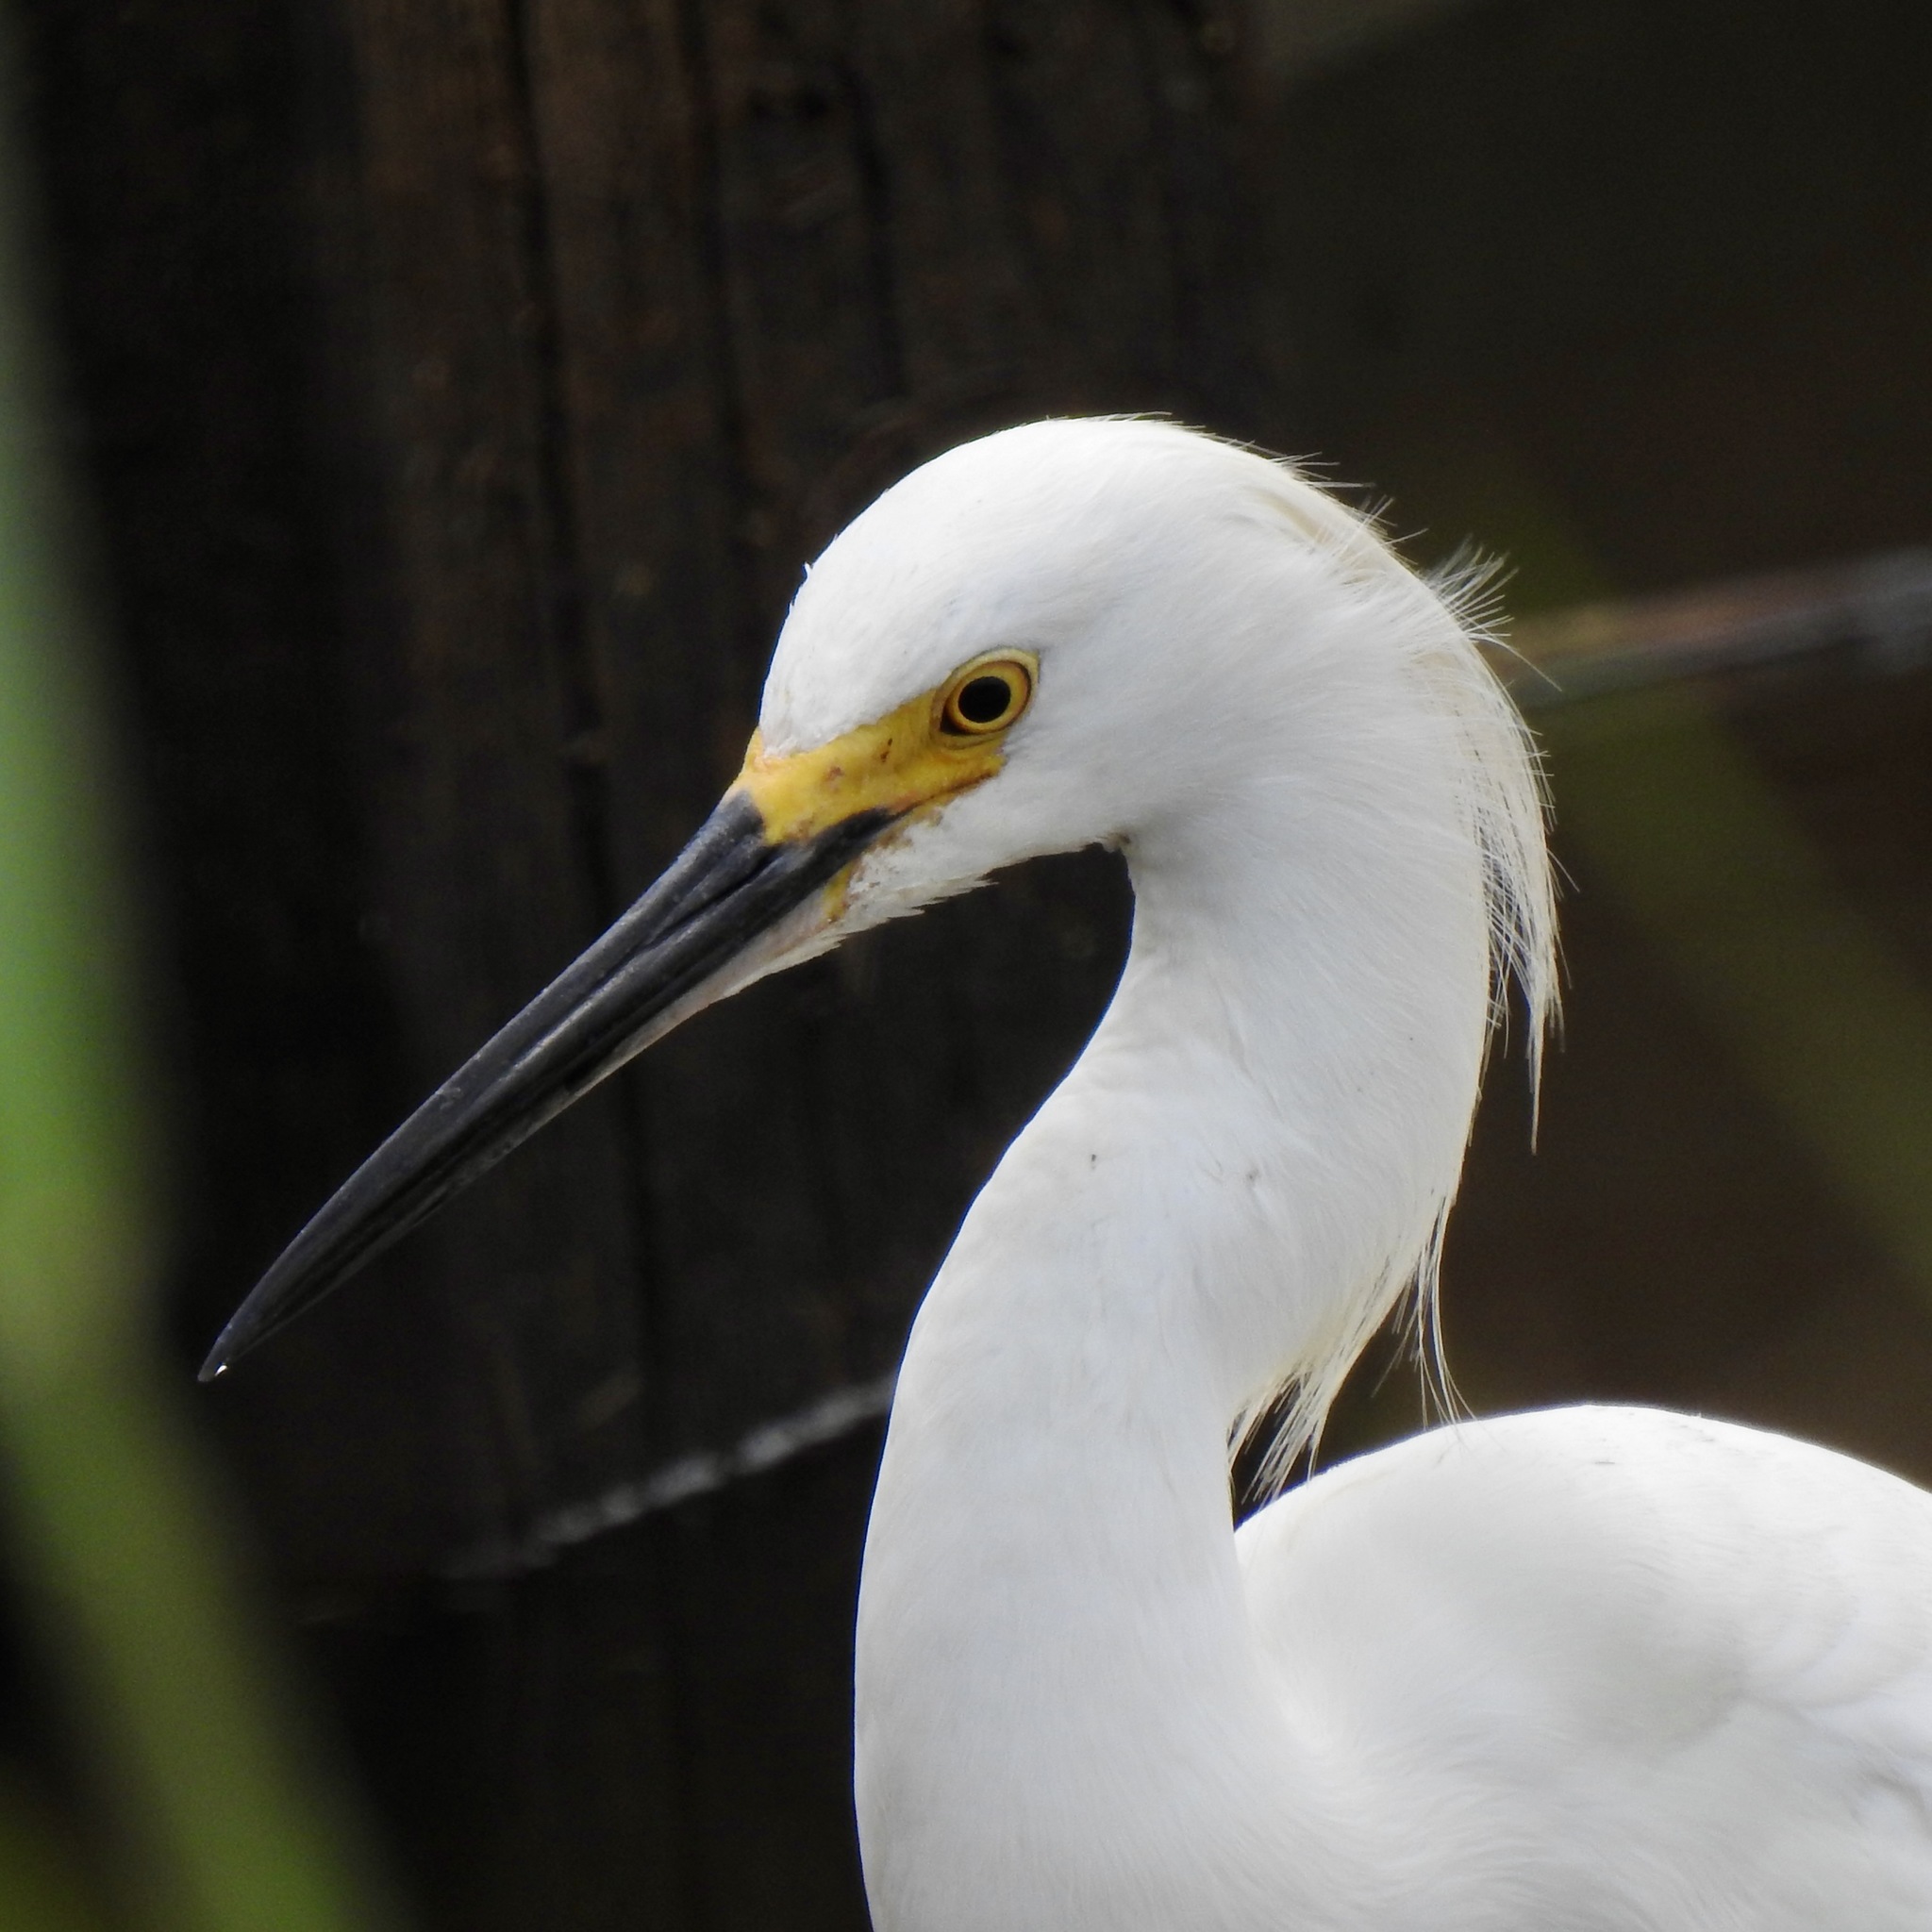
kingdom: Animalia
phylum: Chordata
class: Aves
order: Pelecaniformes
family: Ardeidae
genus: Egretta
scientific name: Egretta thula
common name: Snowy egret
